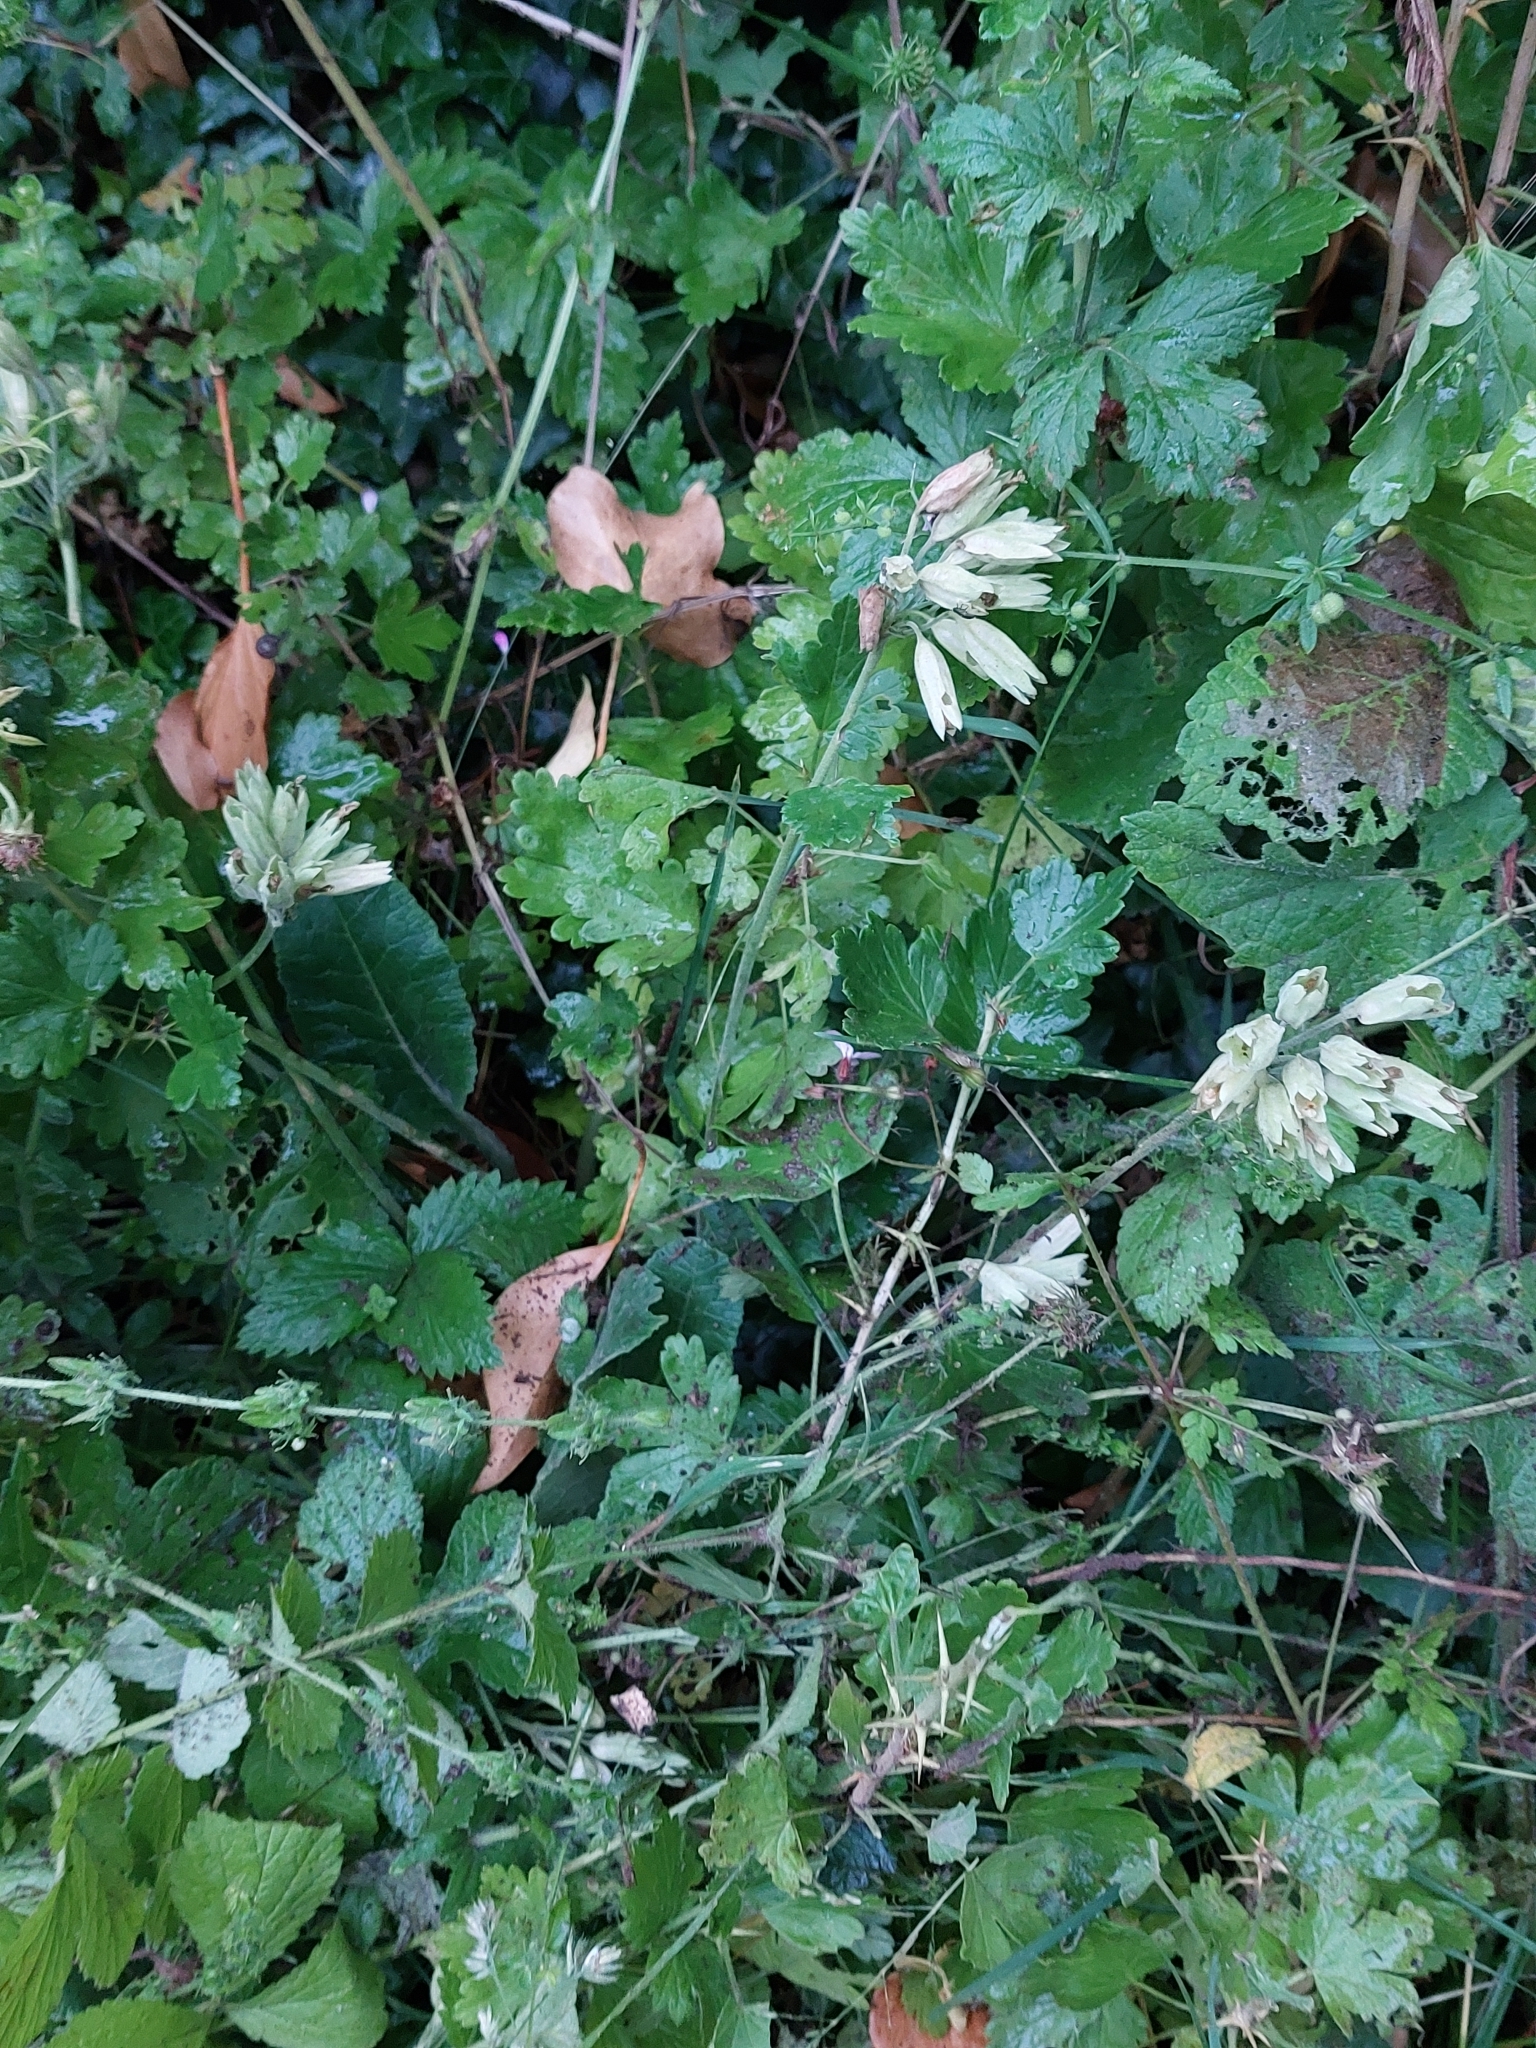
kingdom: Plantae
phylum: Tracheophyta
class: Magnoliopsida
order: Ericales
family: Primulaceae
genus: Primula
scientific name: Primula veris
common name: Cowslip
